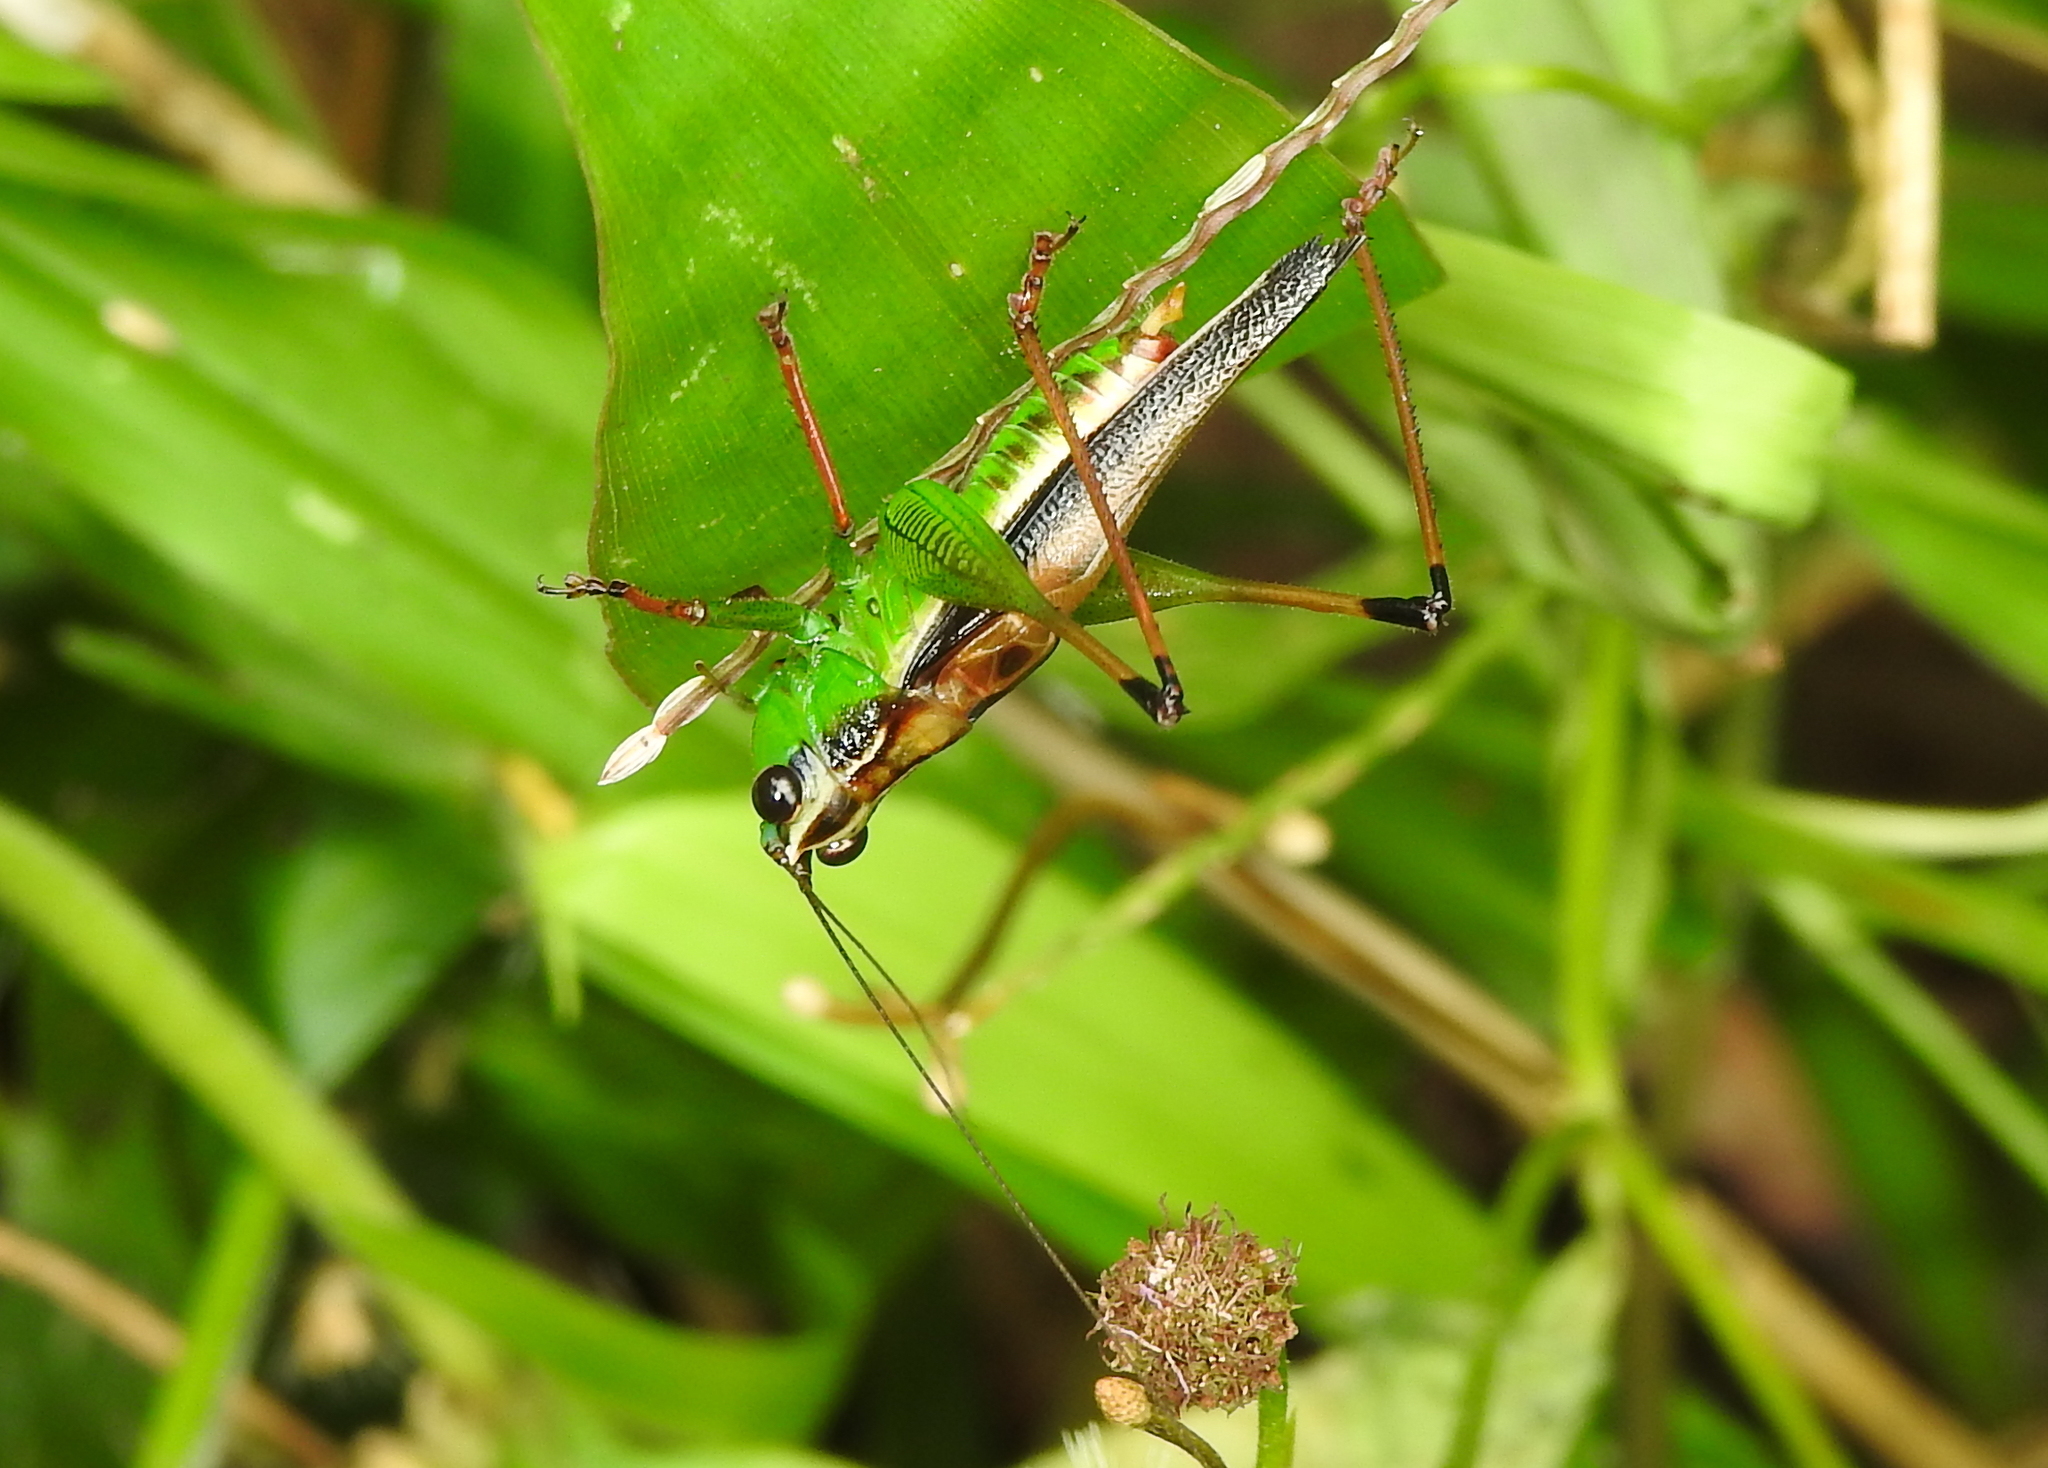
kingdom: Animalia
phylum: Arthropoda
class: Insecta
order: Orthoptera
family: Tettigoniidae
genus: Conocephalus
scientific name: Conocephalus melaenus
